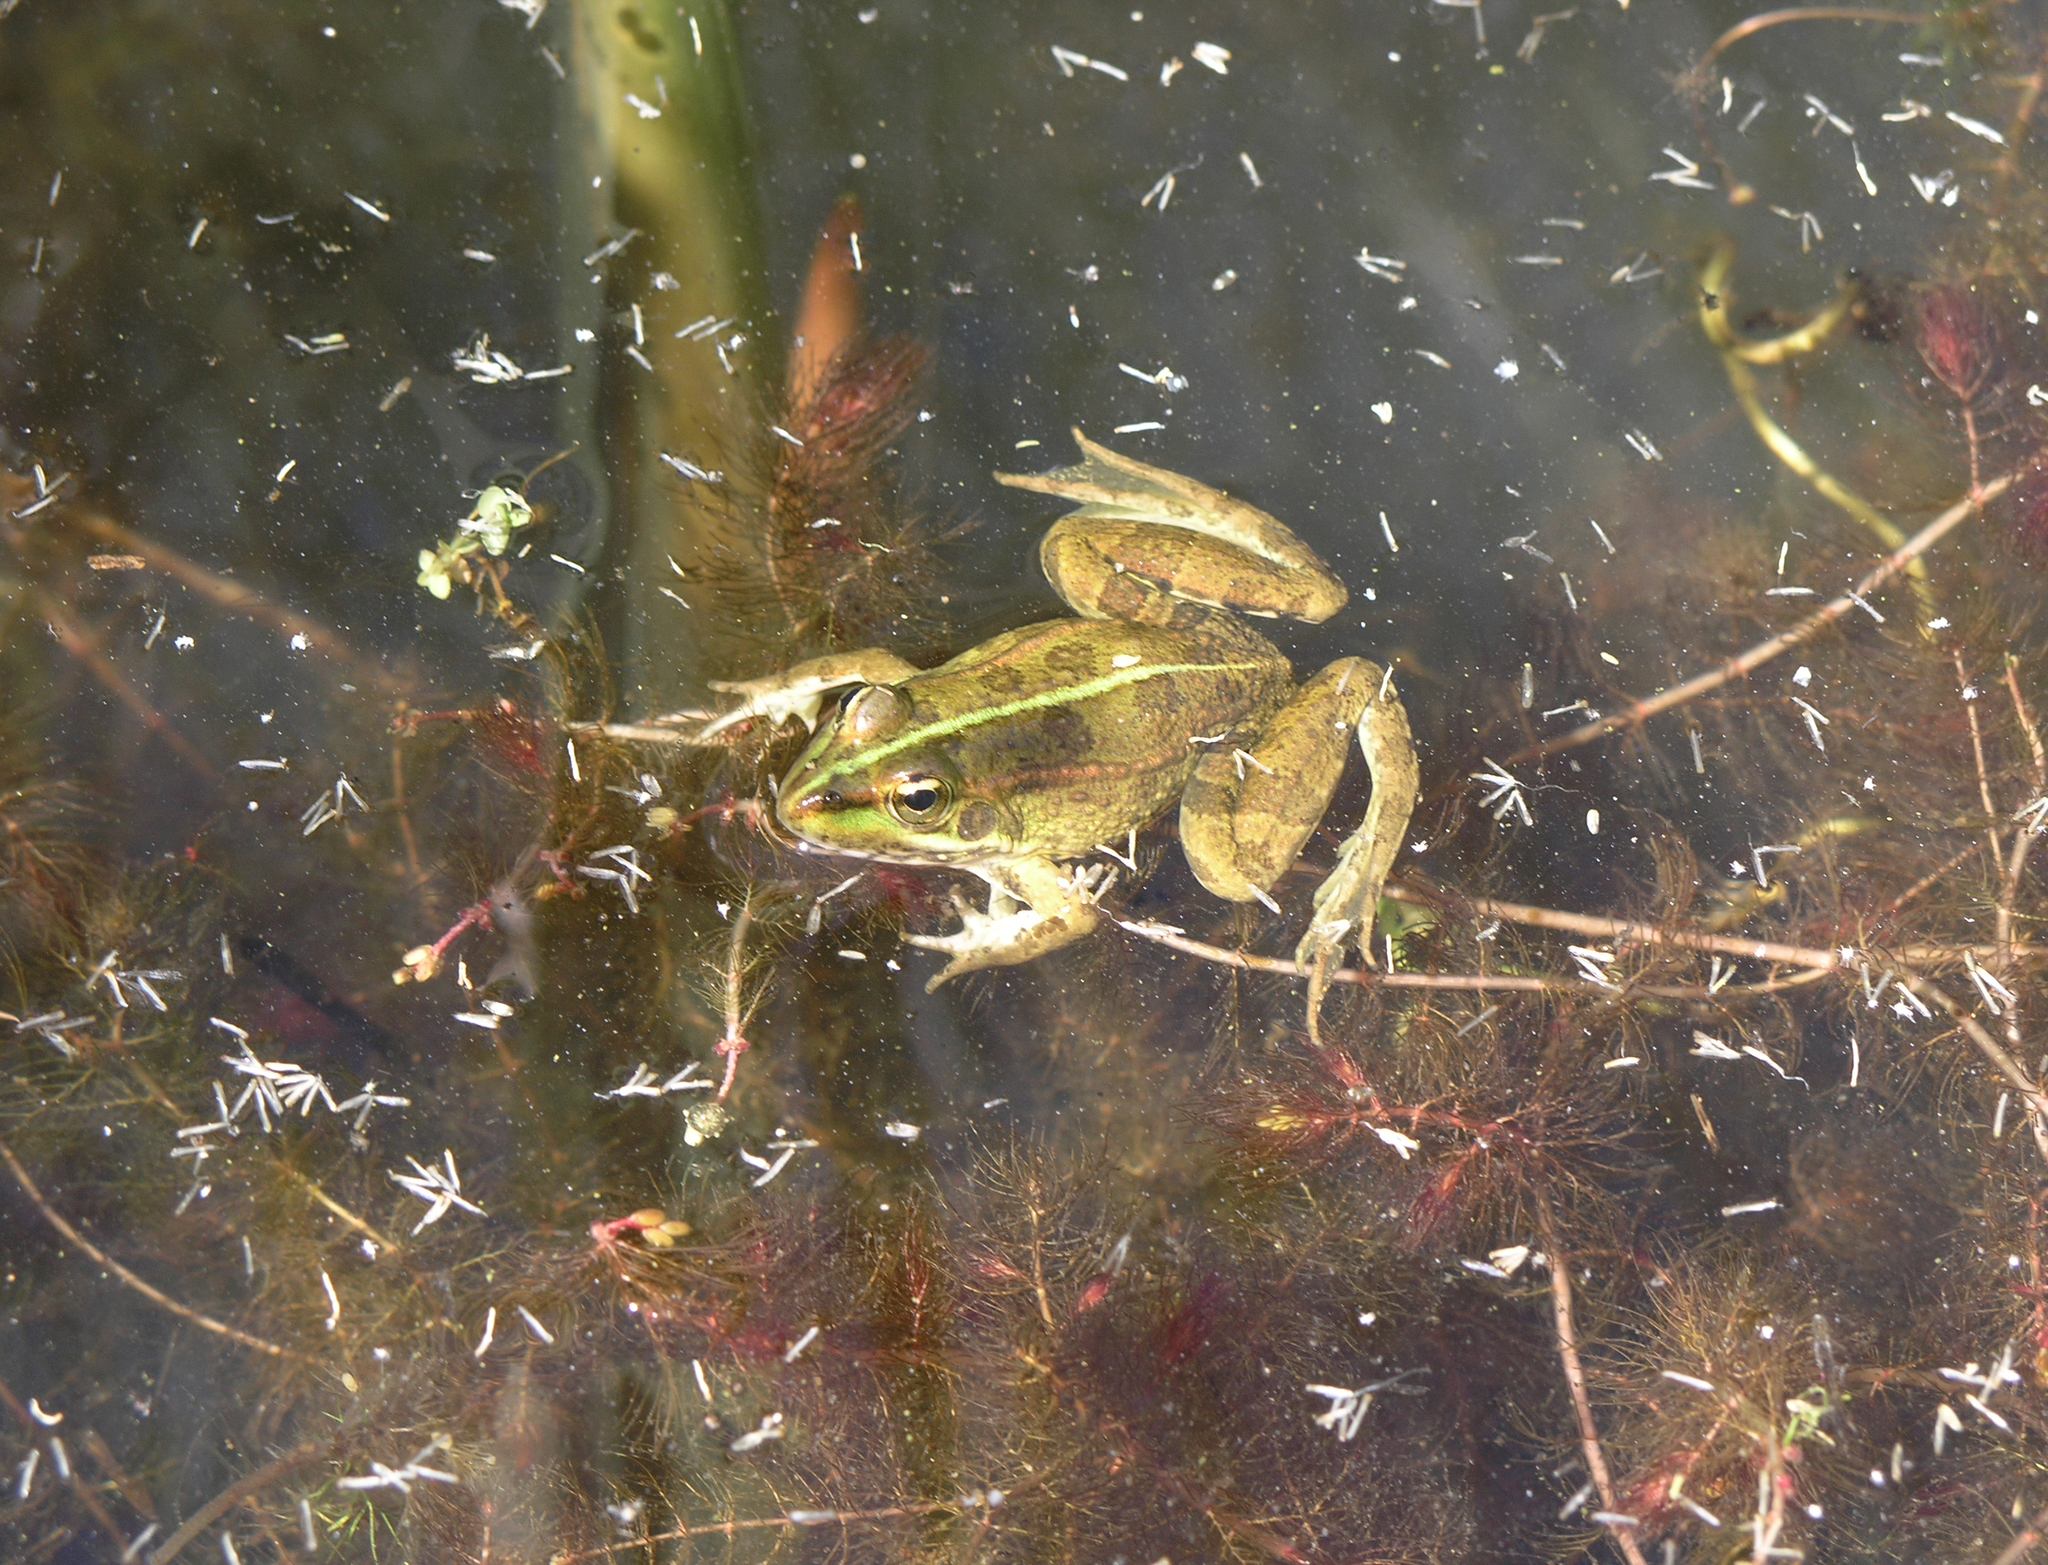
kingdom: Animalia
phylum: Chordata
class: Amphibia
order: Anura
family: Ranidae
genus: Pelophylax
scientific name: Pelophylax perezi
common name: Perez's frog
